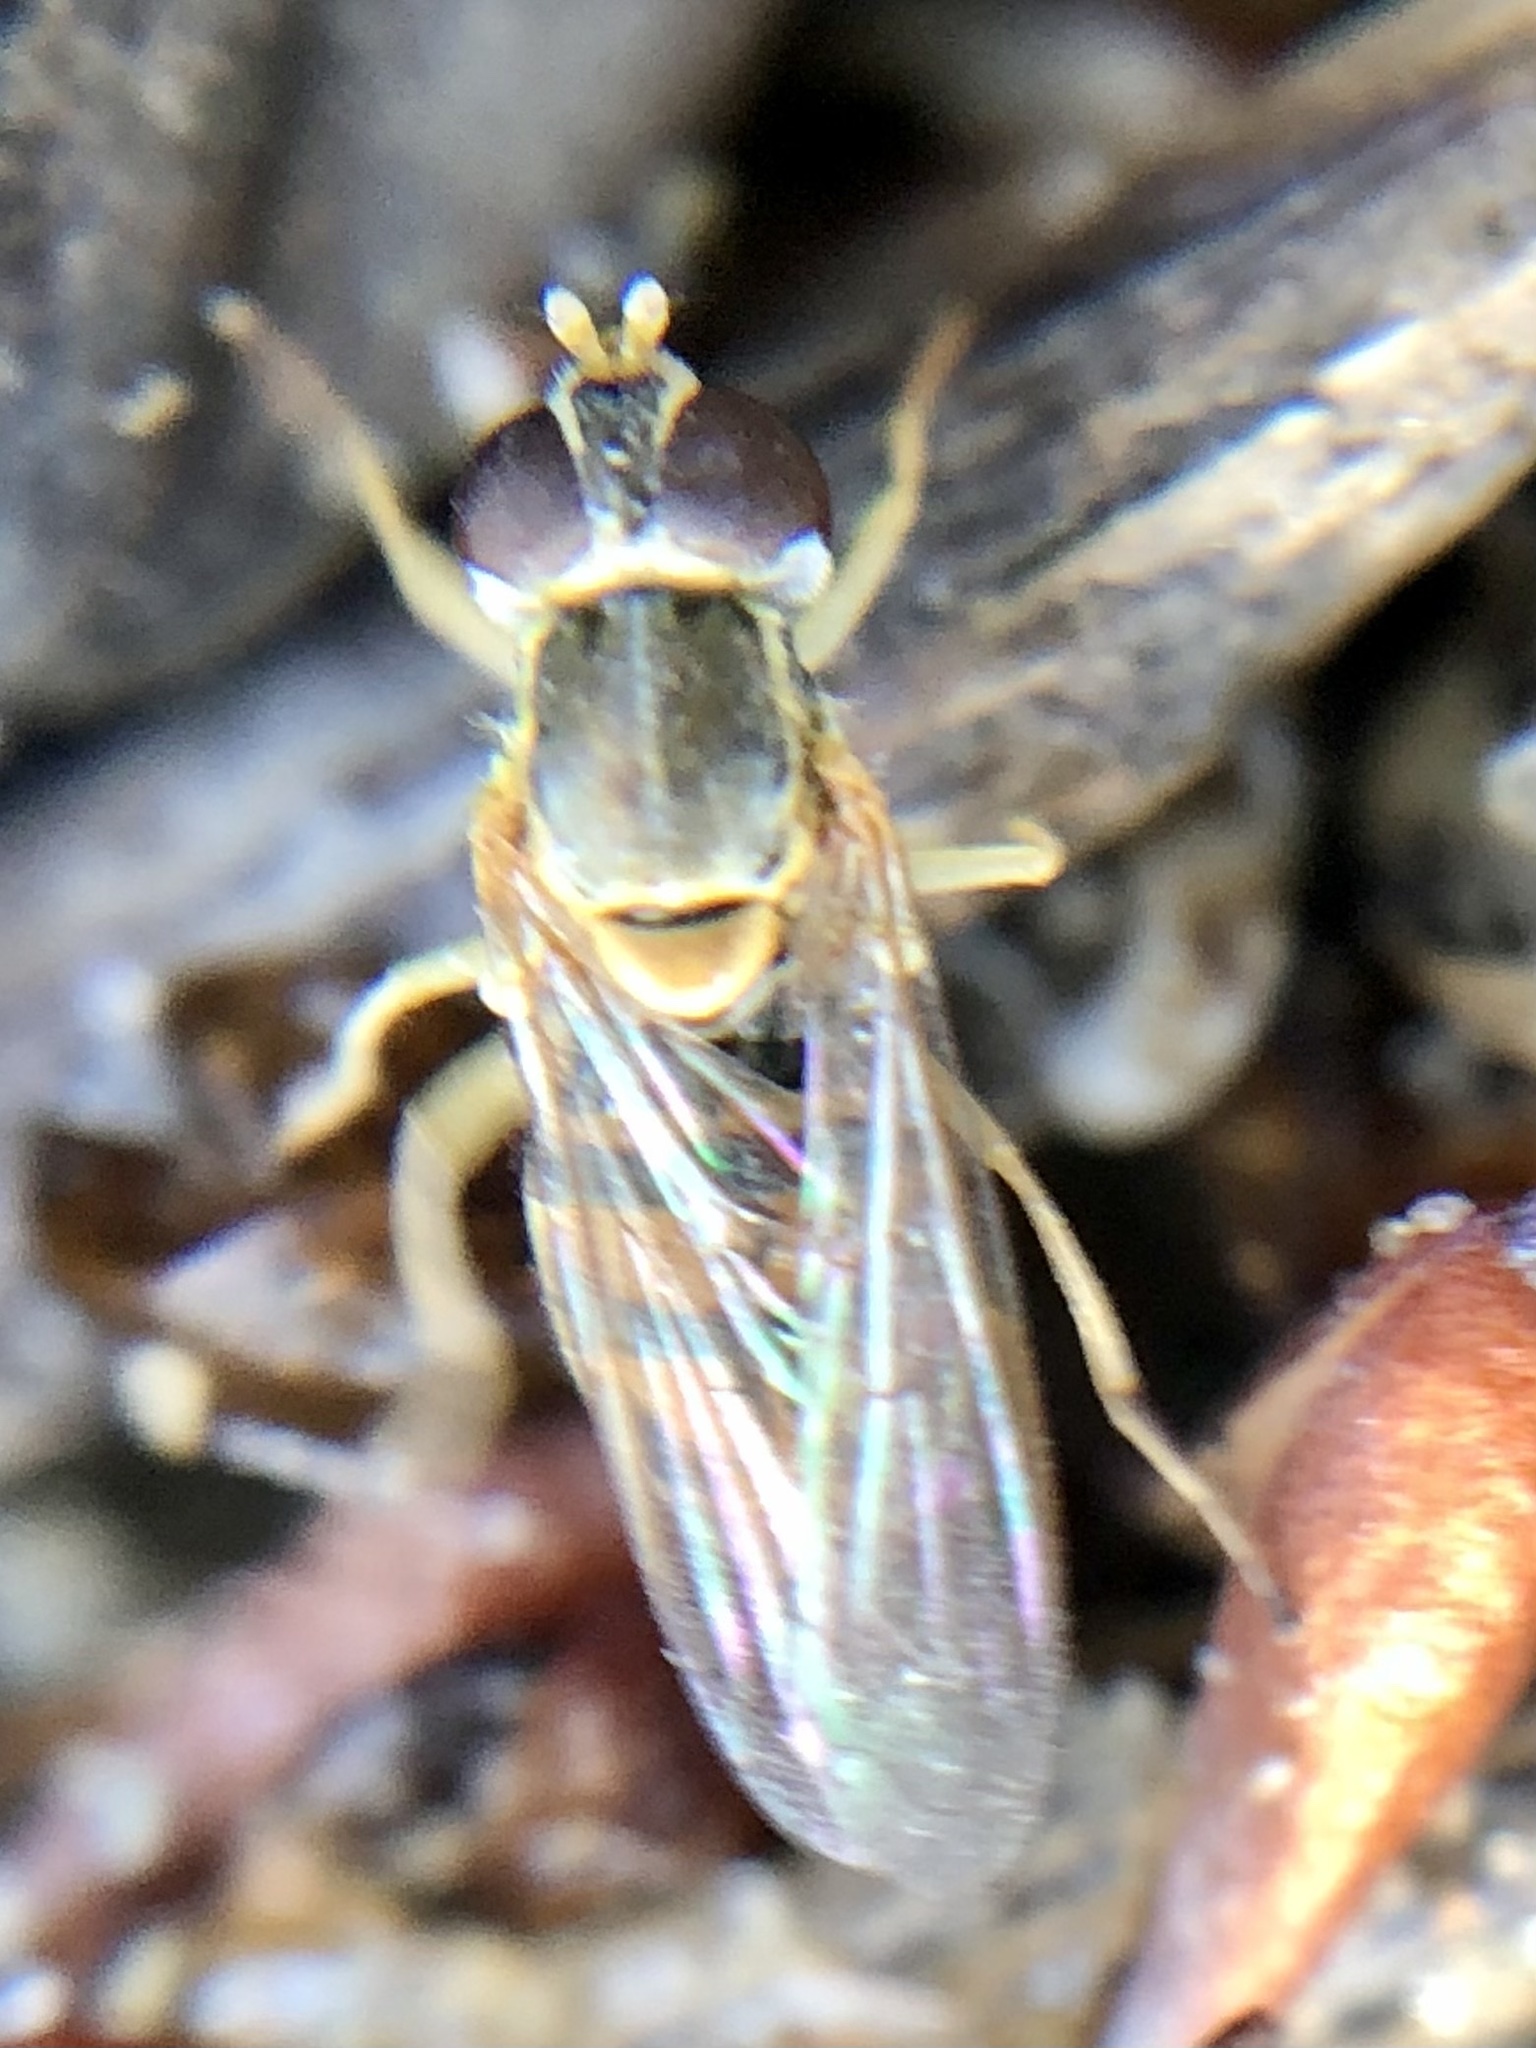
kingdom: Animalia
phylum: Arthropoda
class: Insecta
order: Diptera
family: Syrphidae
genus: Toxomerus
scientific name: Toxomerus marginatus
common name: Syrphid fly
